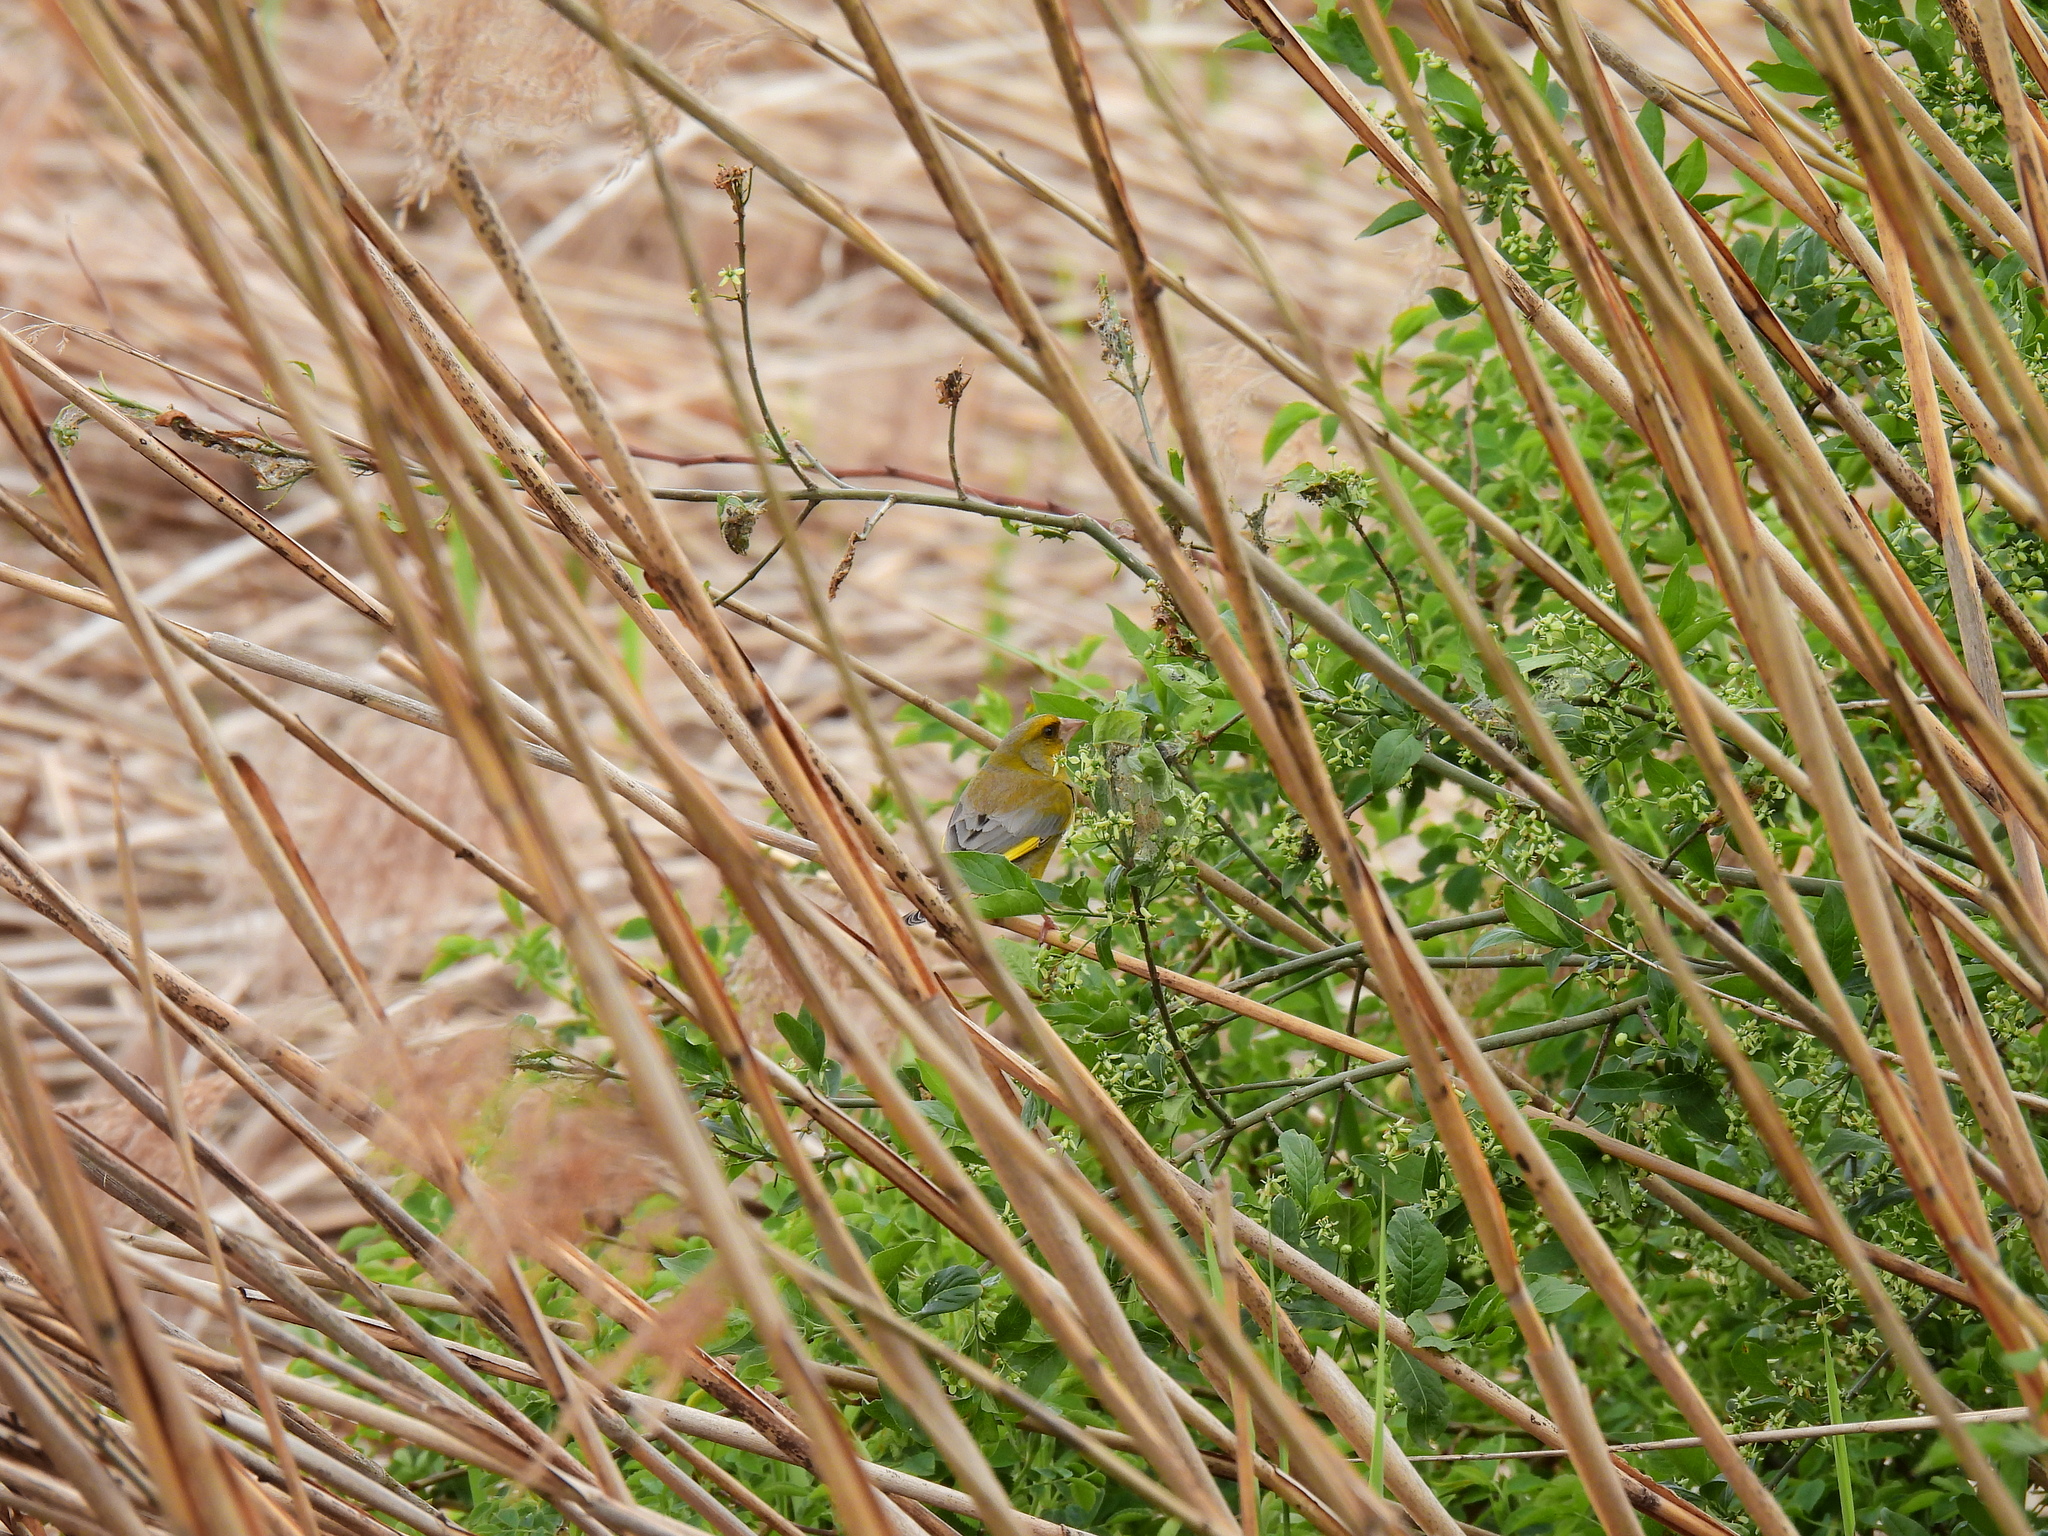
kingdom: Plantae
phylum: Tracheophyta
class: Liliopsida
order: Poales
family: Poaceae
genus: Chloris
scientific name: Chloris chloris
